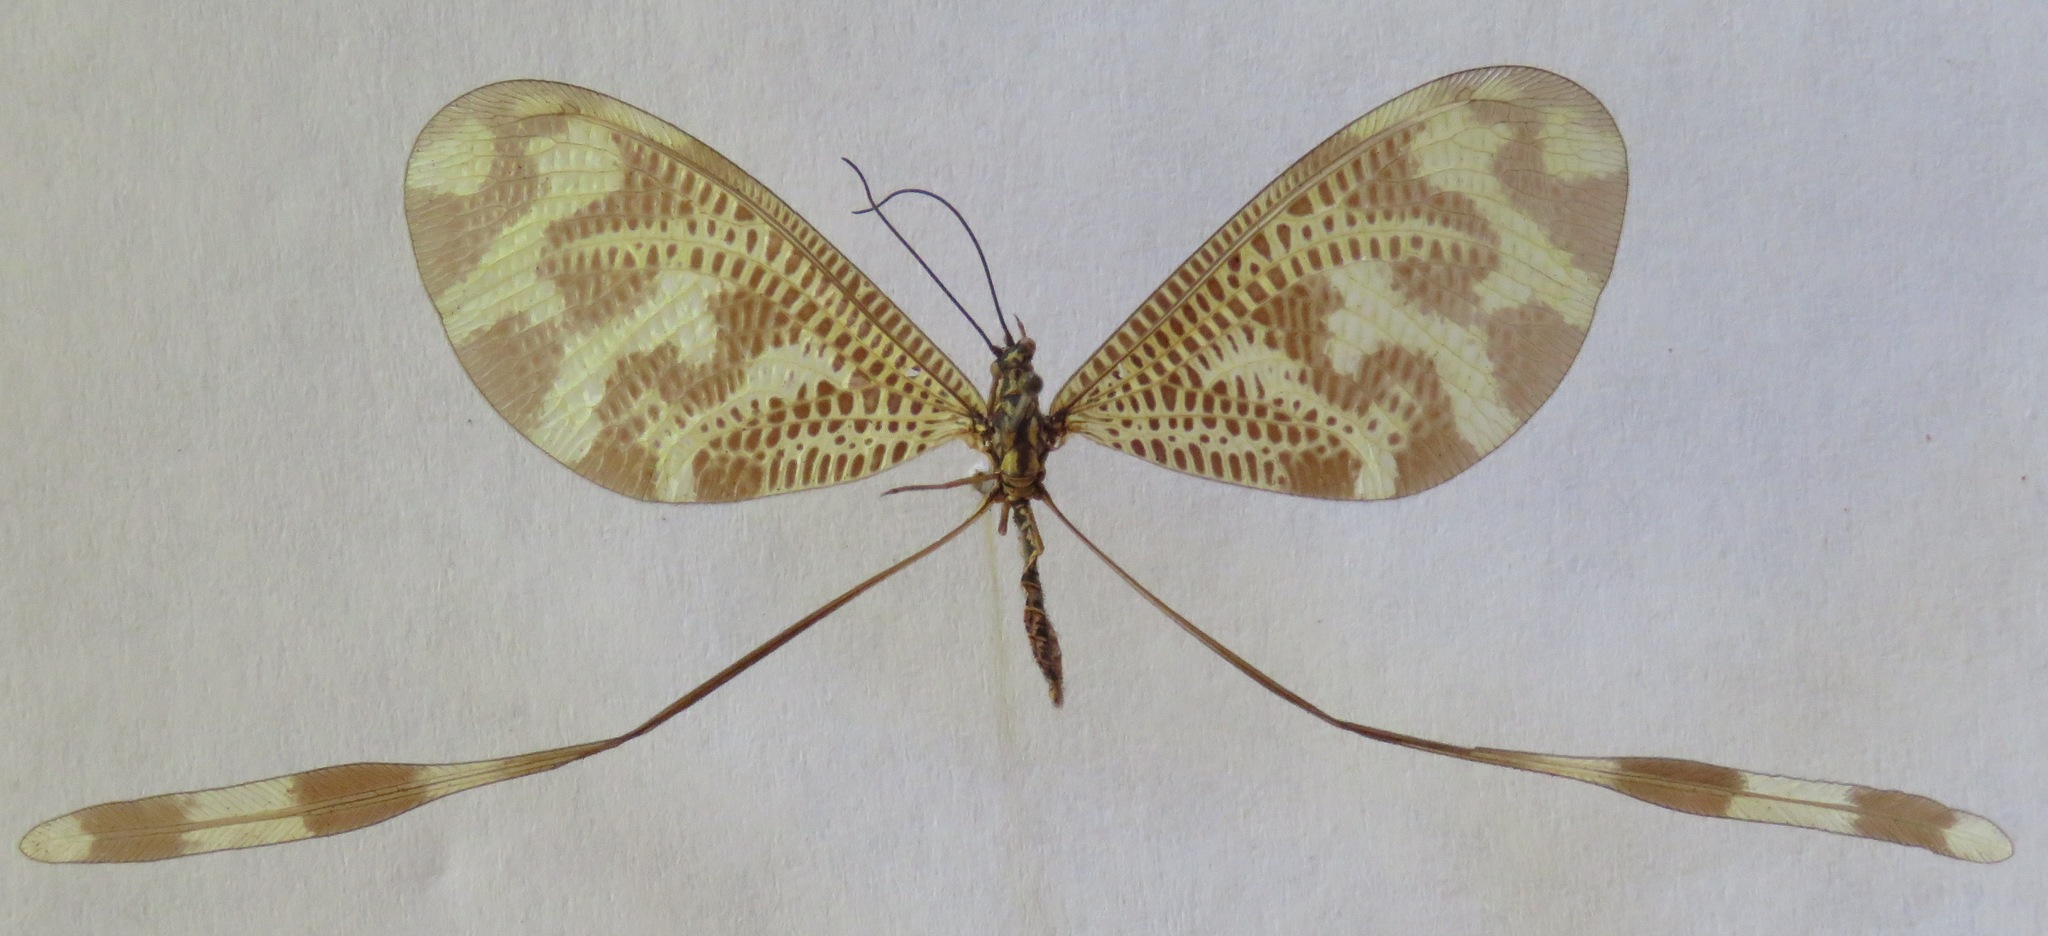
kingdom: Animalia
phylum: Arthropoda
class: Insecta
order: Neuroptera
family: Nemopteridae
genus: Nemoptera
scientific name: Nemoptera bipennis
